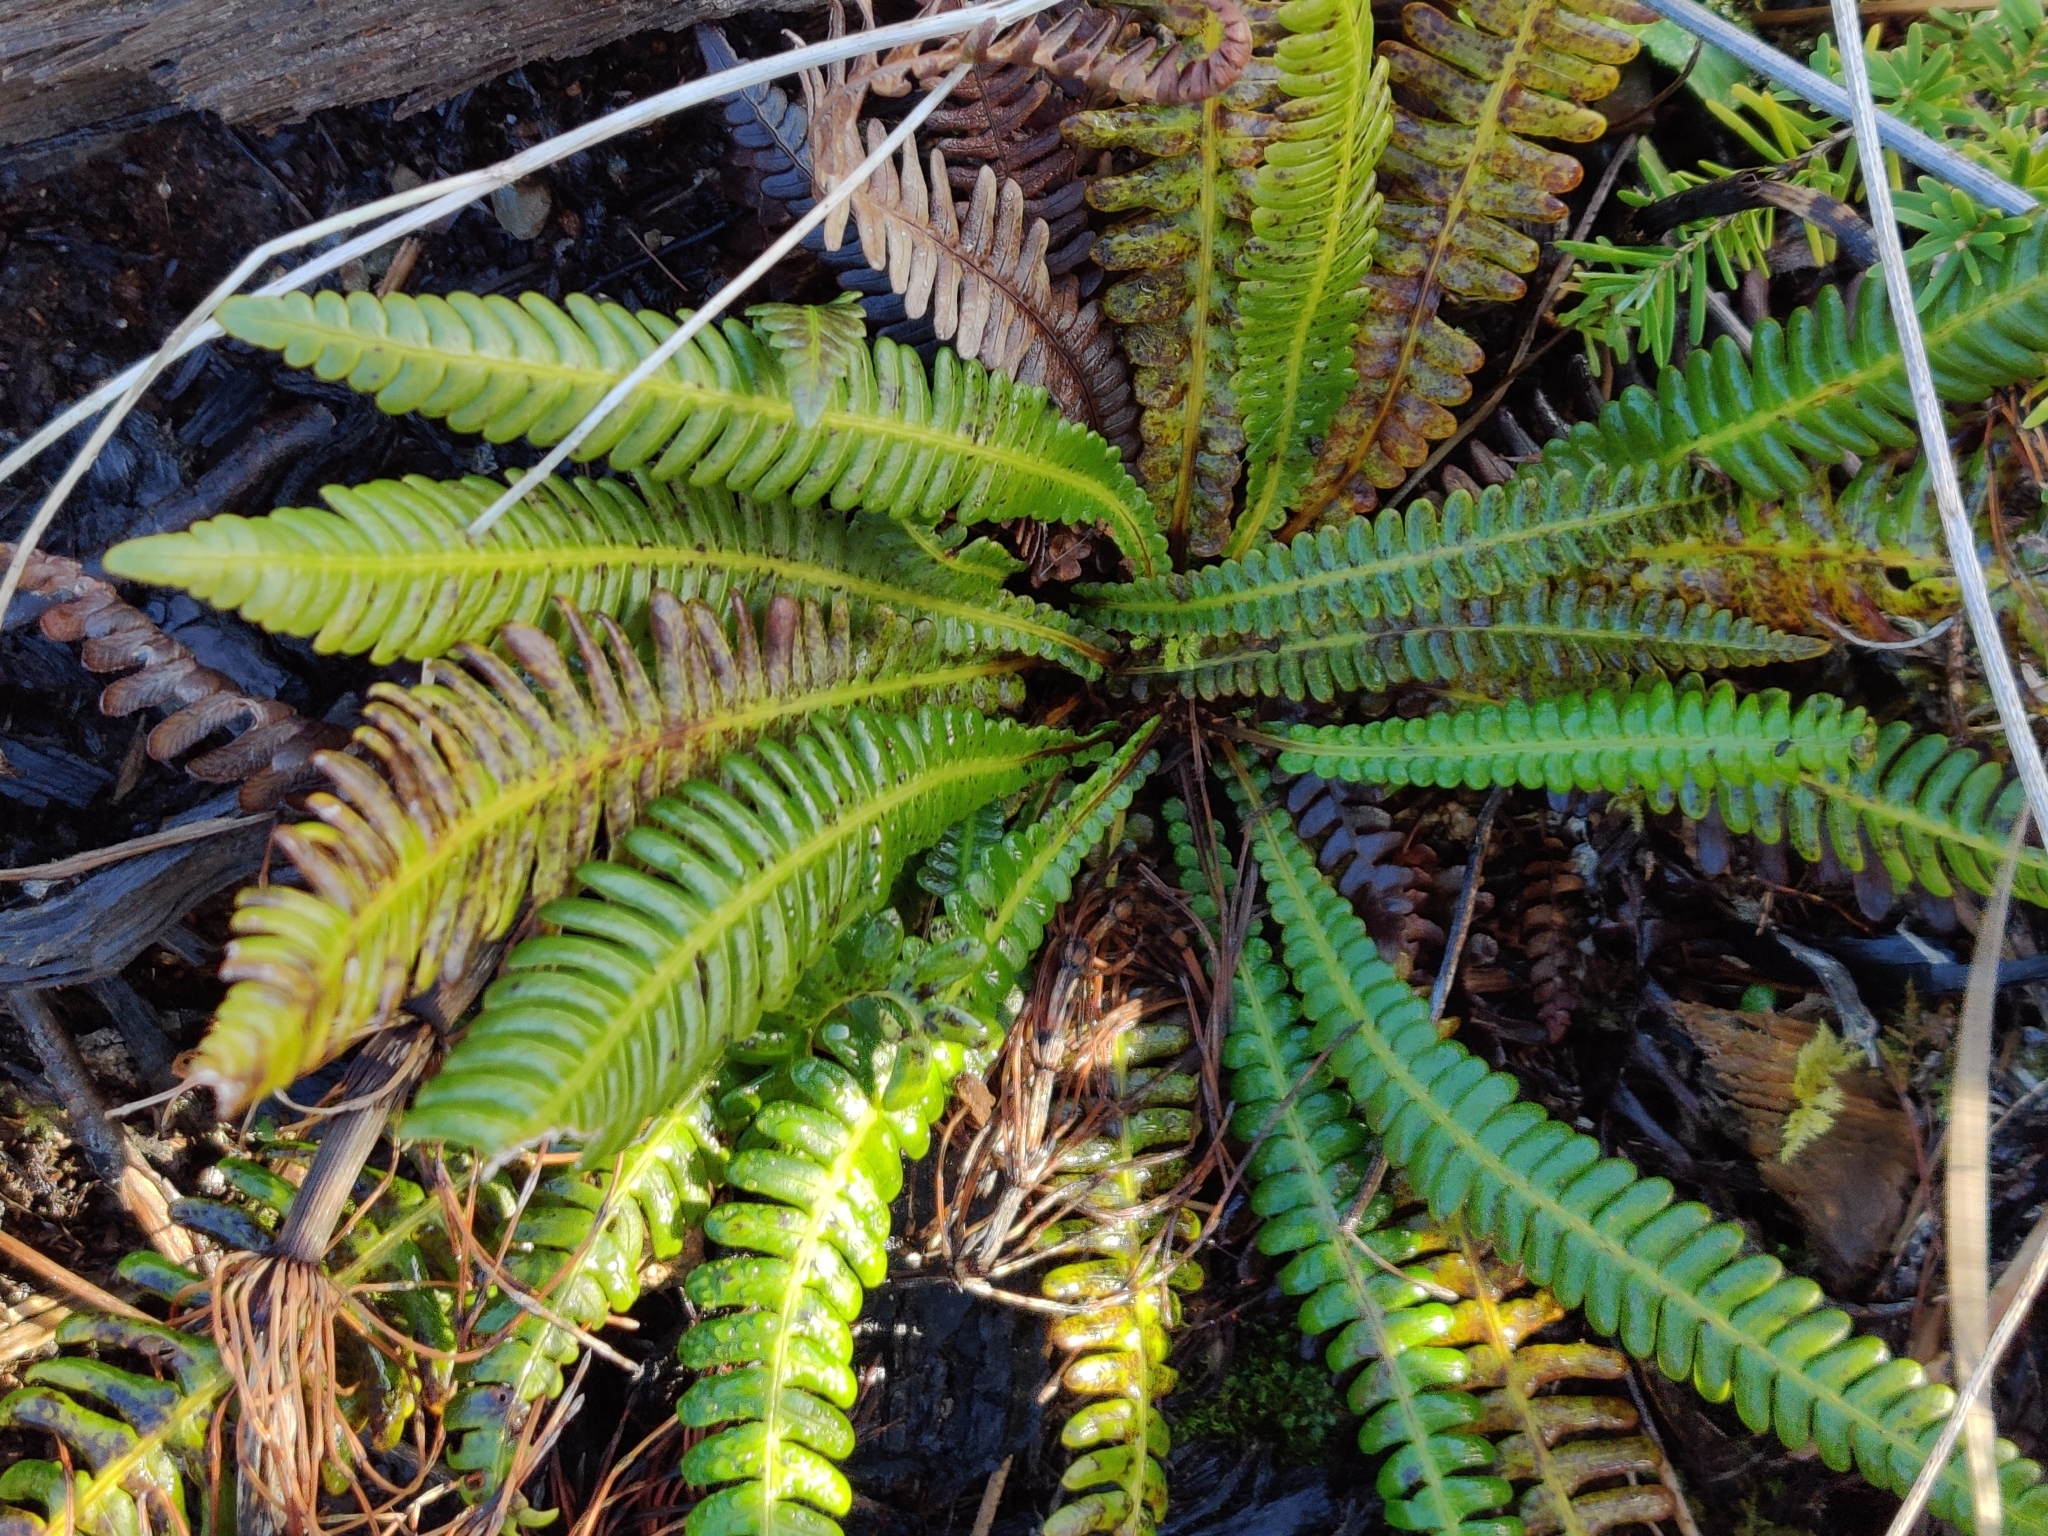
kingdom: Plantae
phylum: Tracheophyta
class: Polypodiopsida
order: Polypodiales
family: Blechnaceae
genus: Struthiopteris
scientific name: Struthiopteris spicant
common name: Deer fern
